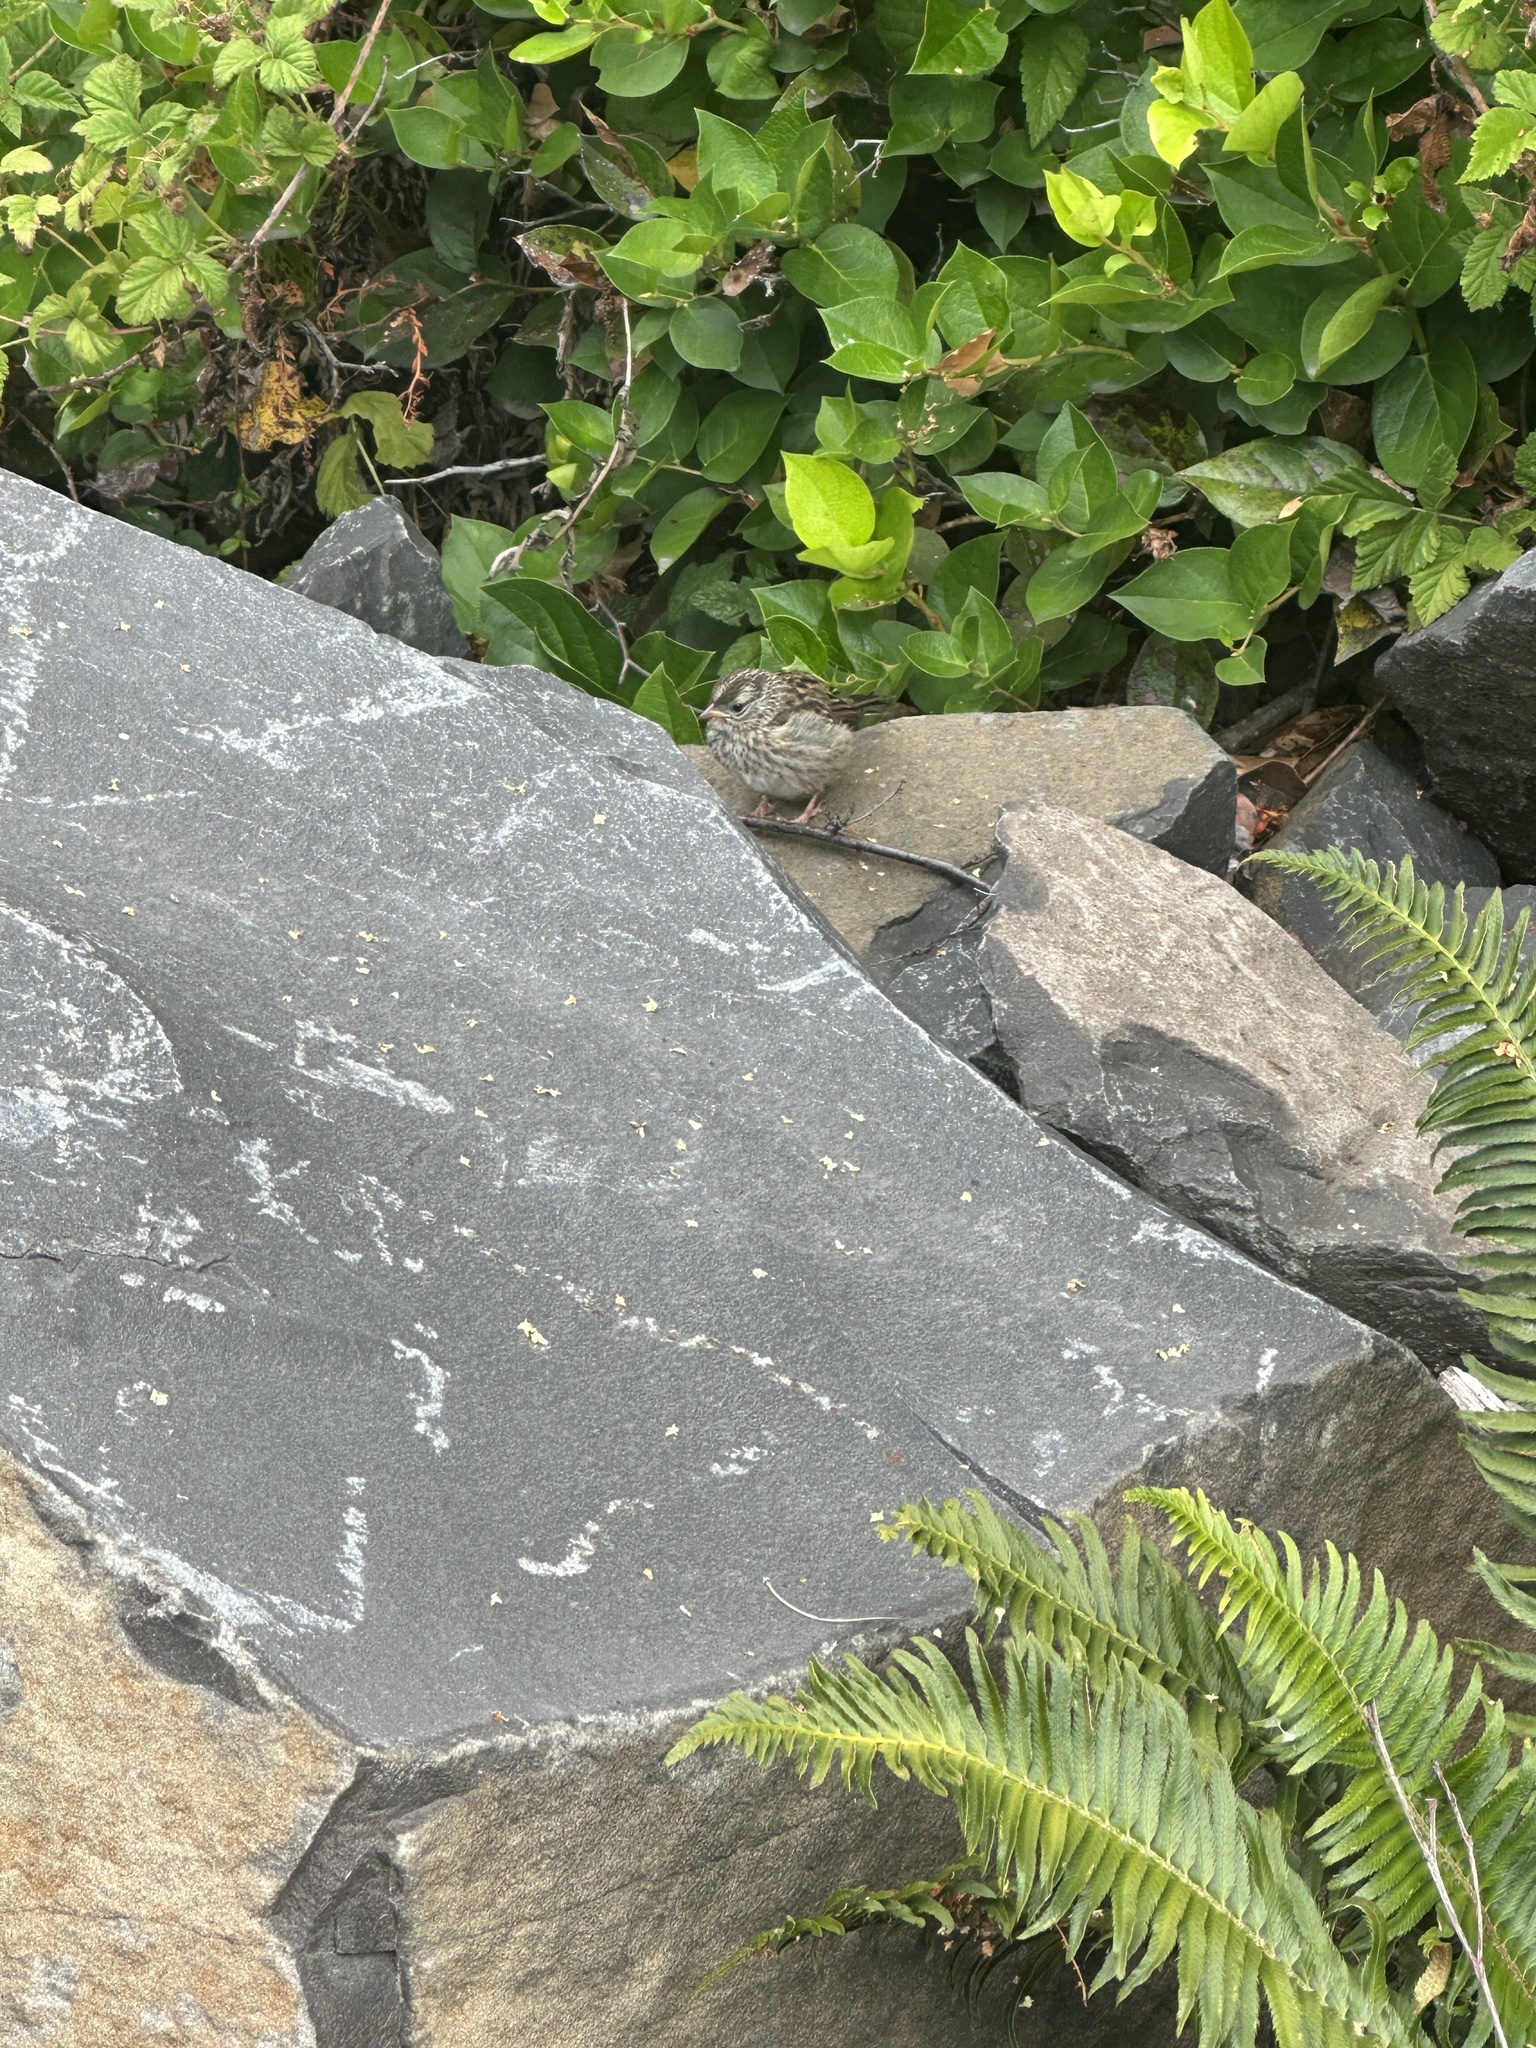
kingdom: Animalia
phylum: Chordata
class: Aves
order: Passeriformes
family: Passerellidae
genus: Zonotrichia
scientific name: Zonotrichia leucophrys
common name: White-crowned sparrow
